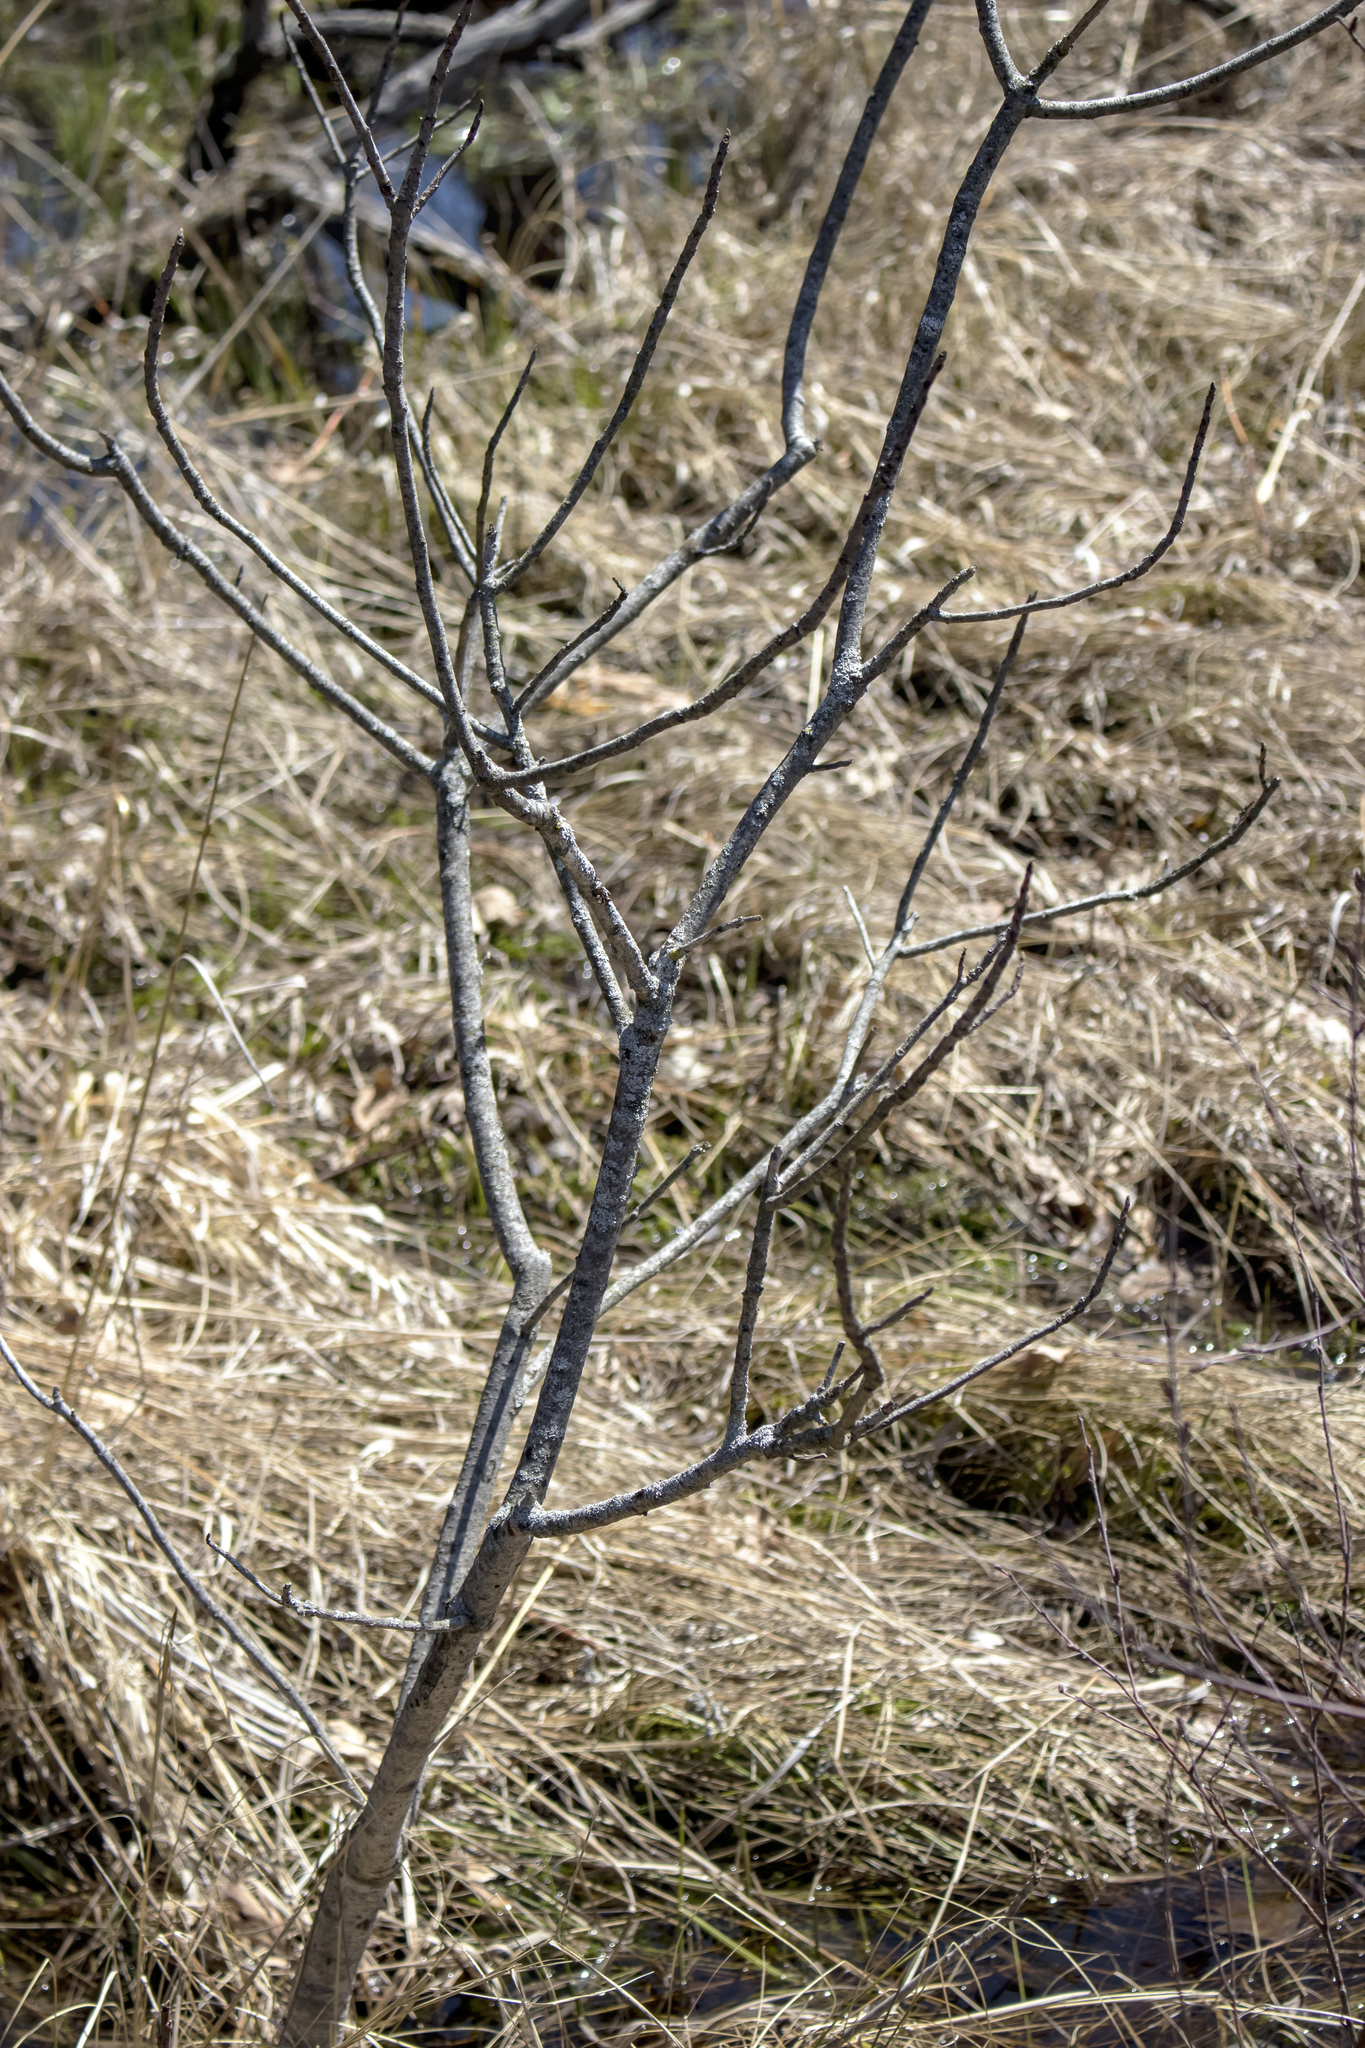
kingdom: Plantae
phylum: Tracheophyta
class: Magnoliopsida
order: Sapindales
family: Anacardiaceae
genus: Toxicodendron
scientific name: Toxicodendron vernix
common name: Poison sumac
